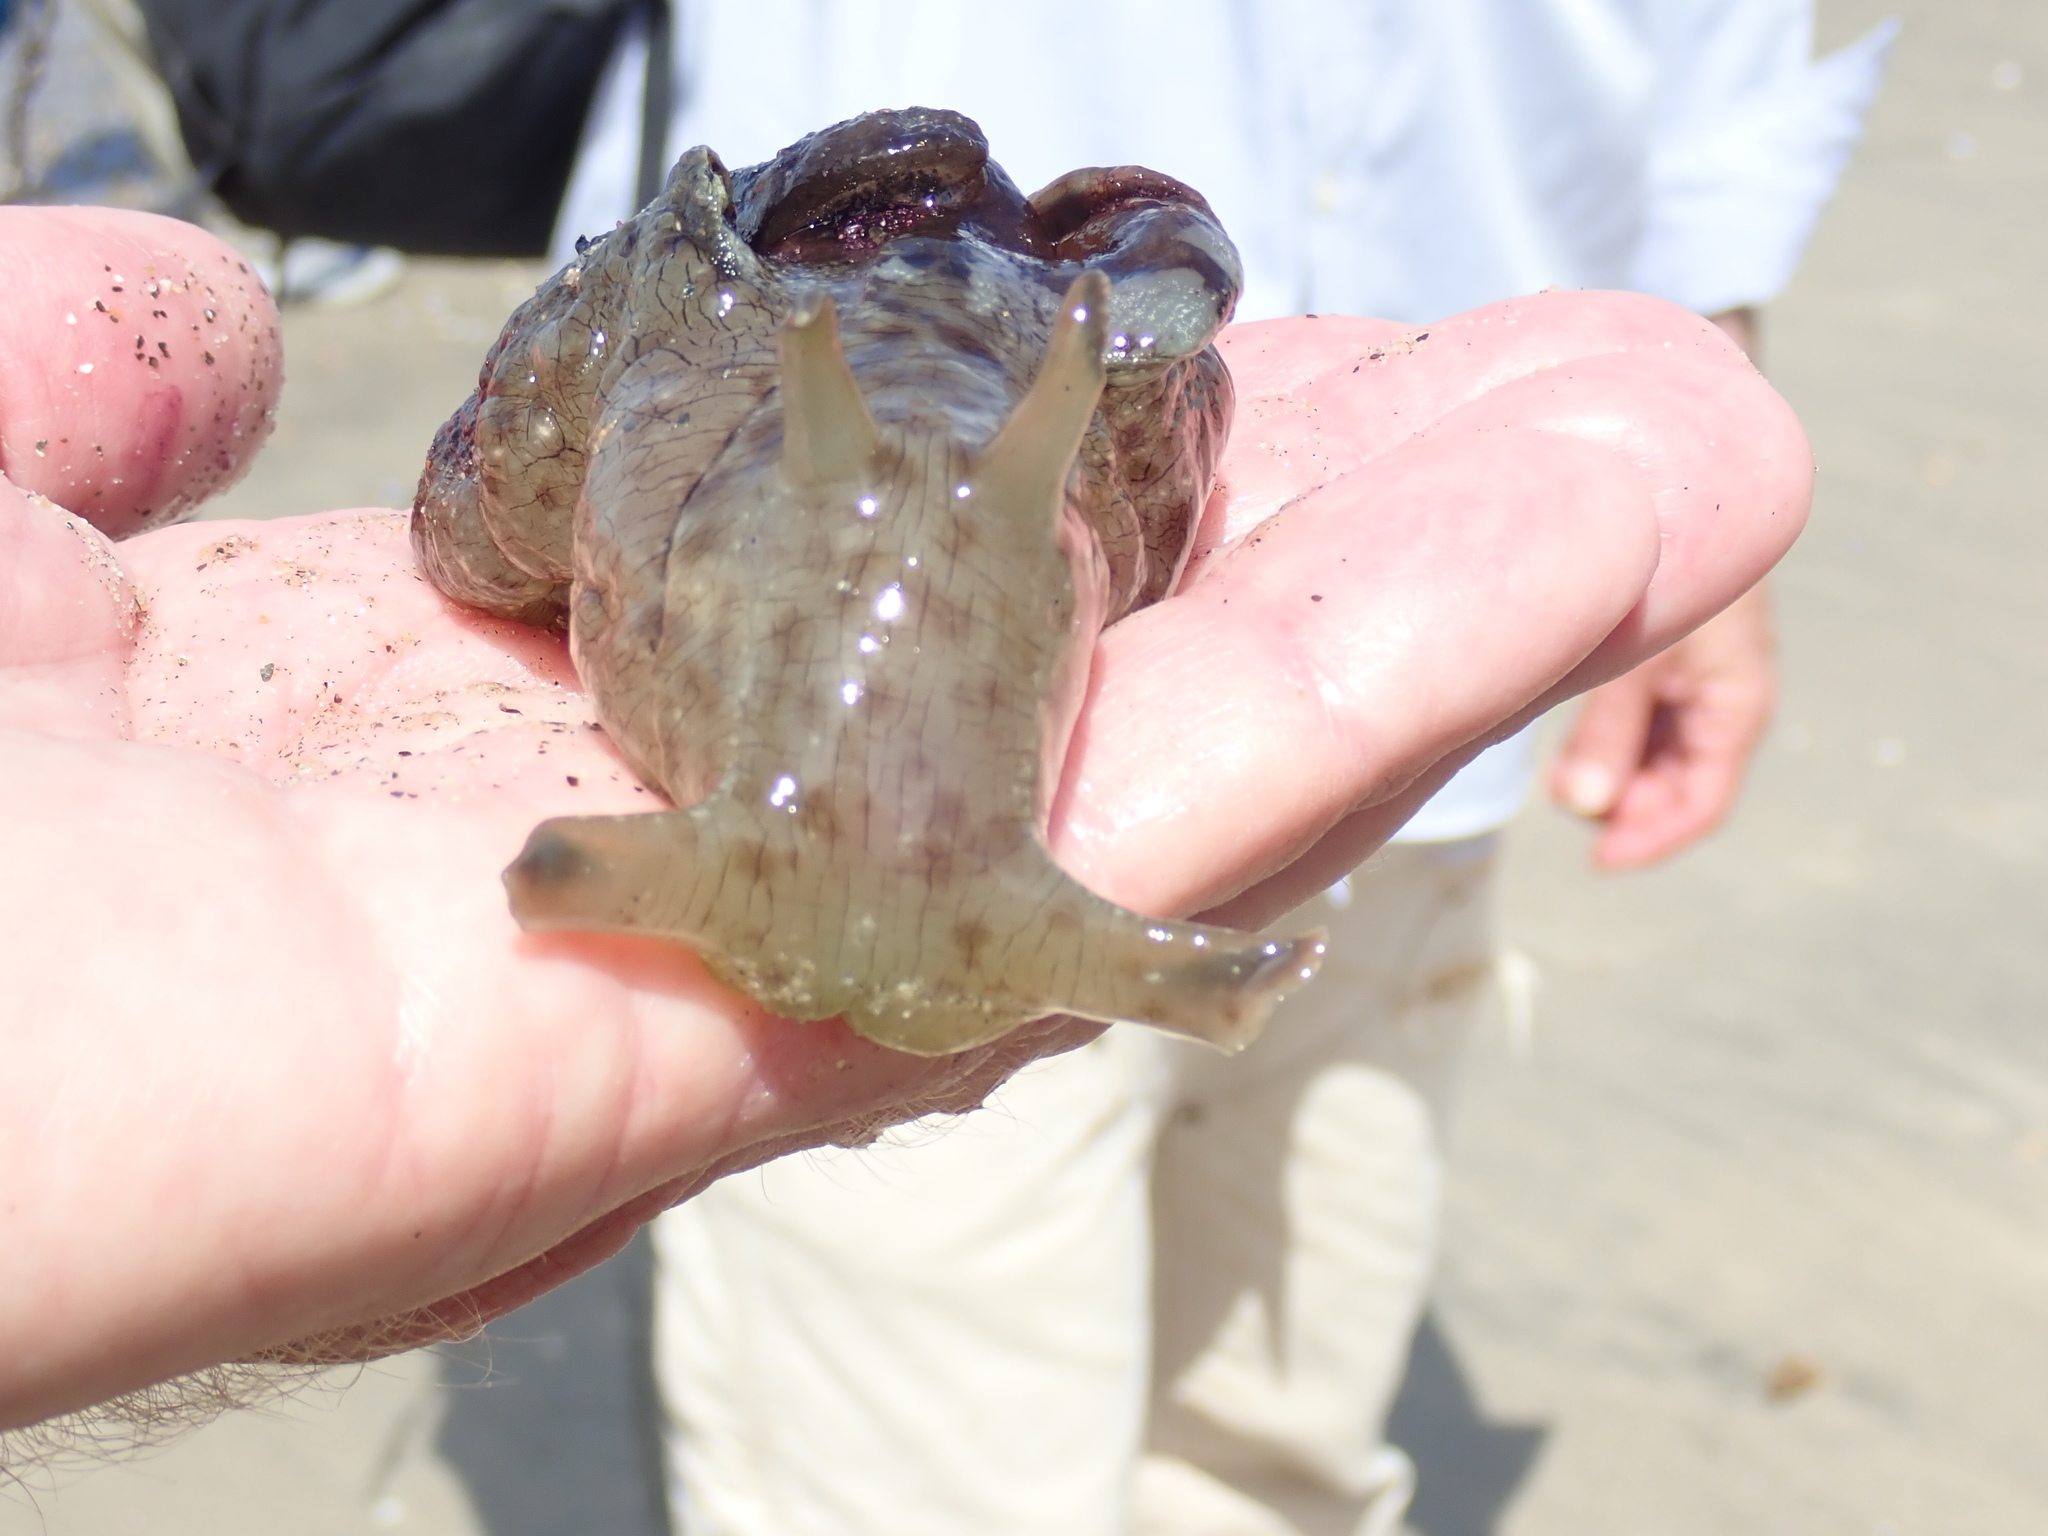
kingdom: Animalia
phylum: Mollusca
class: Gastropoda
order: Aplysiida
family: Aplysiidae
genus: Aplysia
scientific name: Aplysia californica
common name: California seahare
